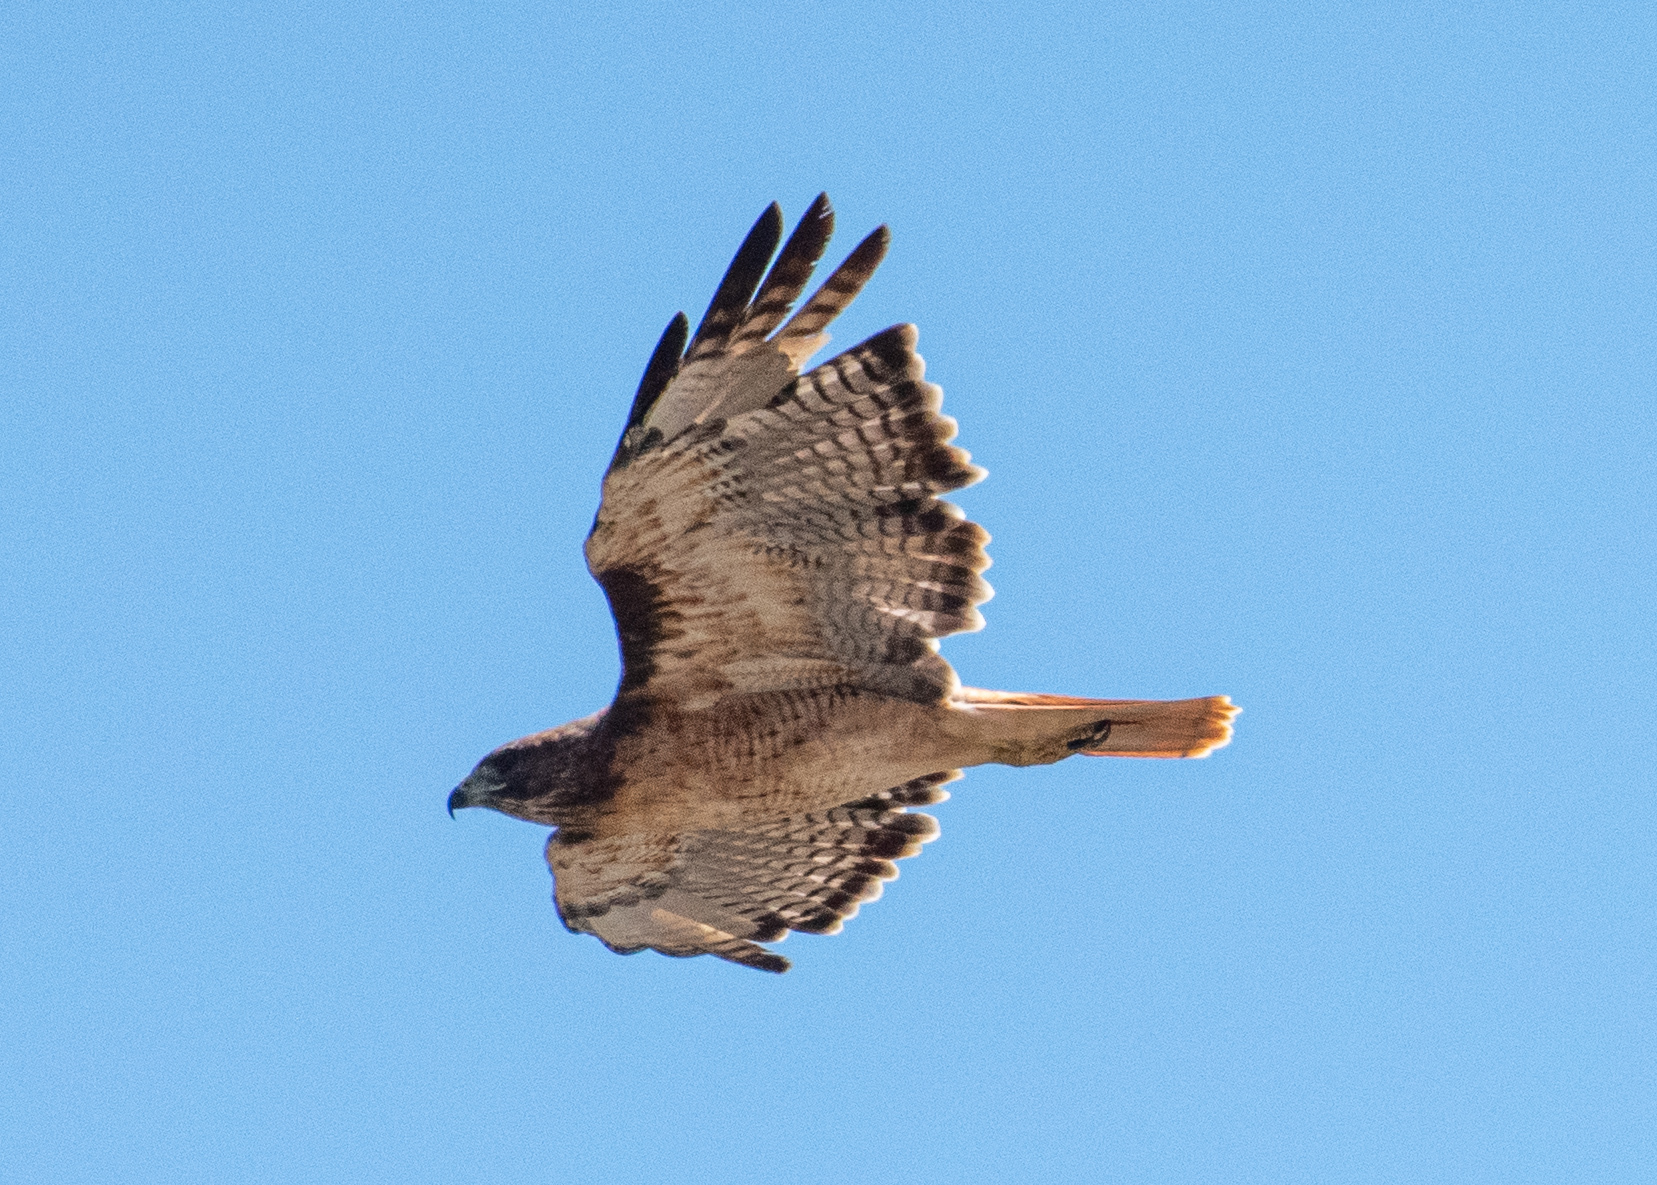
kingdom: Animalia
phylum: Chordata
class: Aves
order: Accipitriformes
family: Accipitridae
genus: Buteo
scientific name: Buteo jamaicensis
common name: Red-tailed hawk
